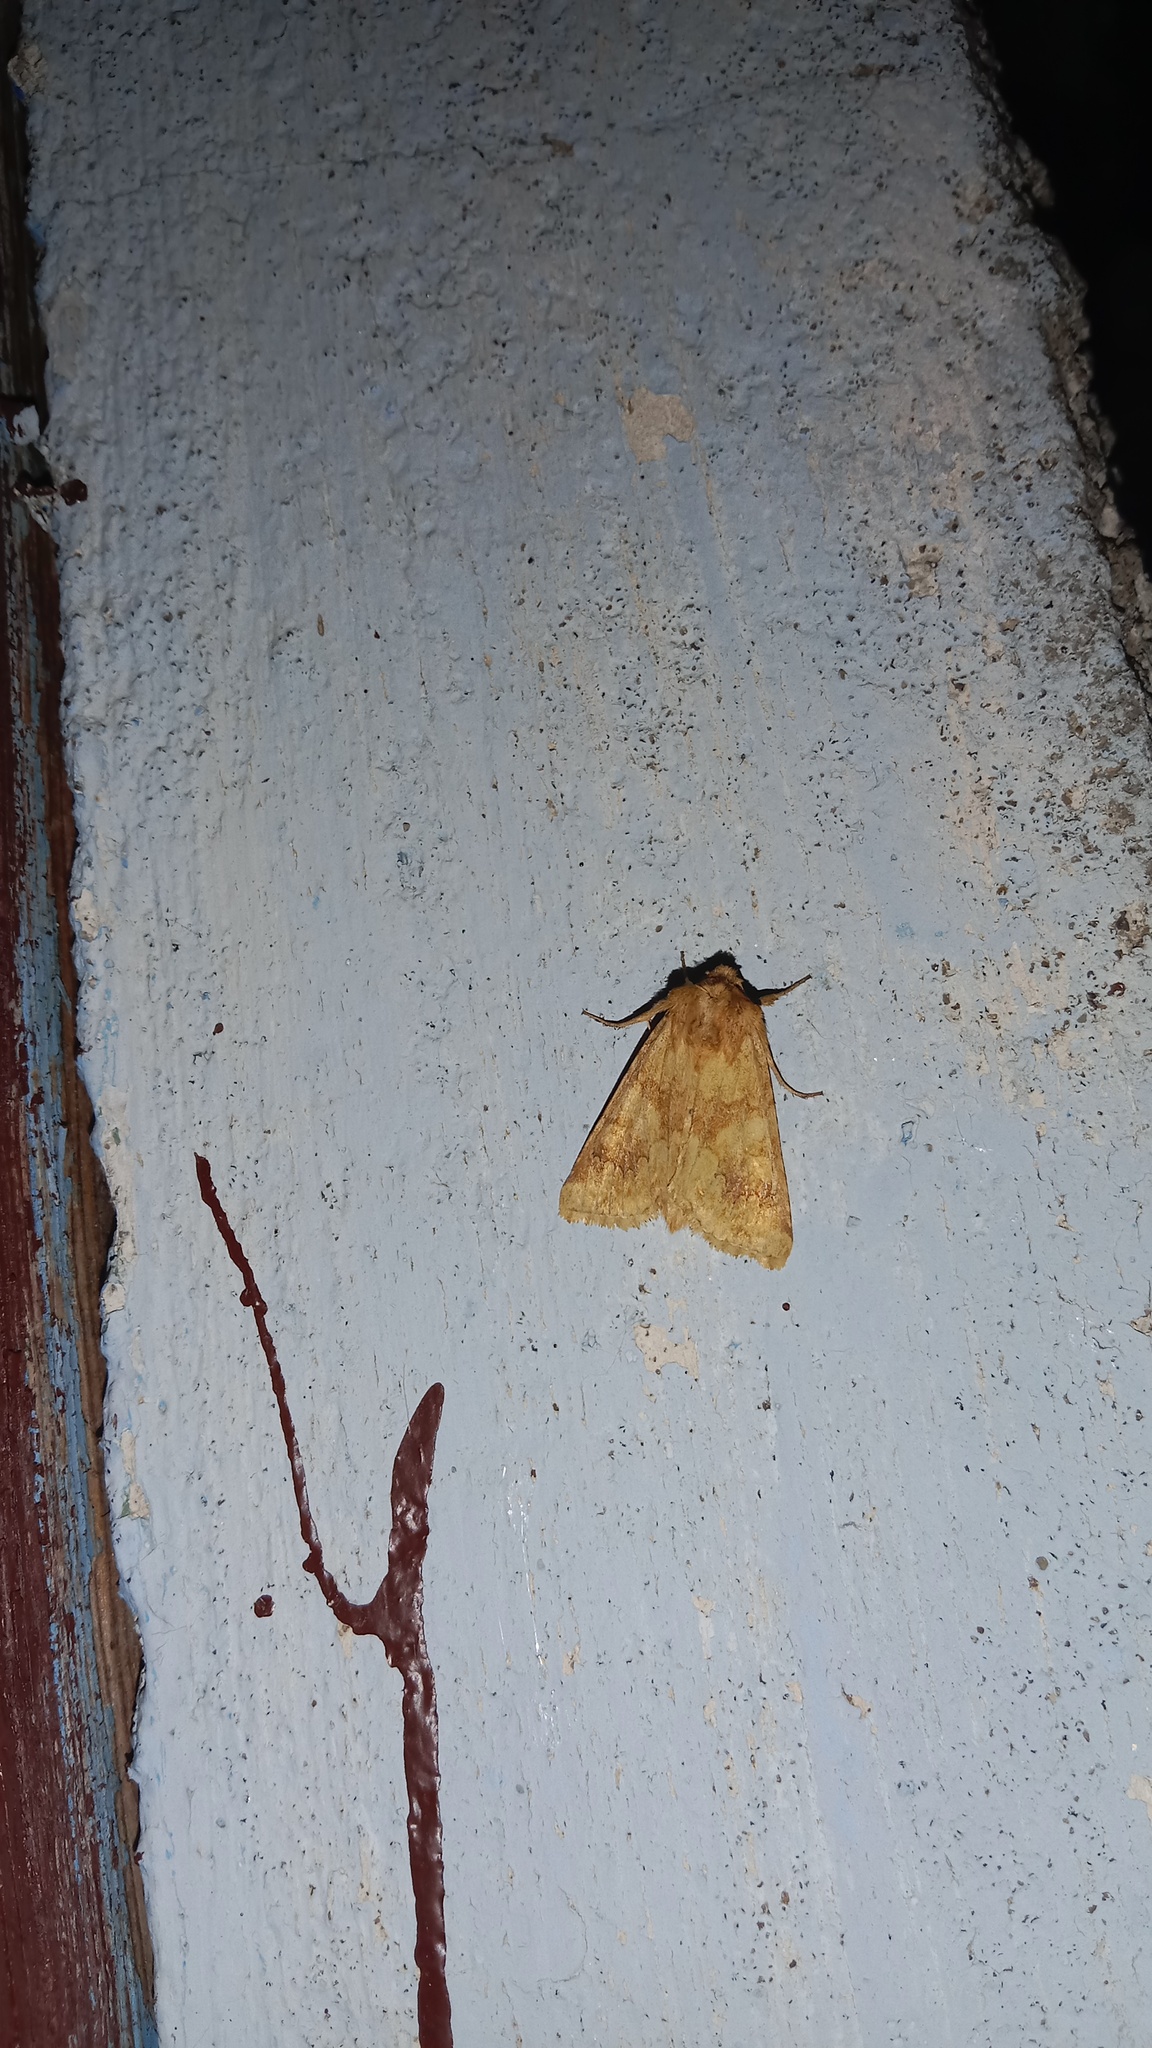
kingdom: Animalia
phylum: Arthropoda
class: Insecta
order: Lepidoptera
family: Noctuidae
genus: Conisania
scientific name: Conisania luteago
